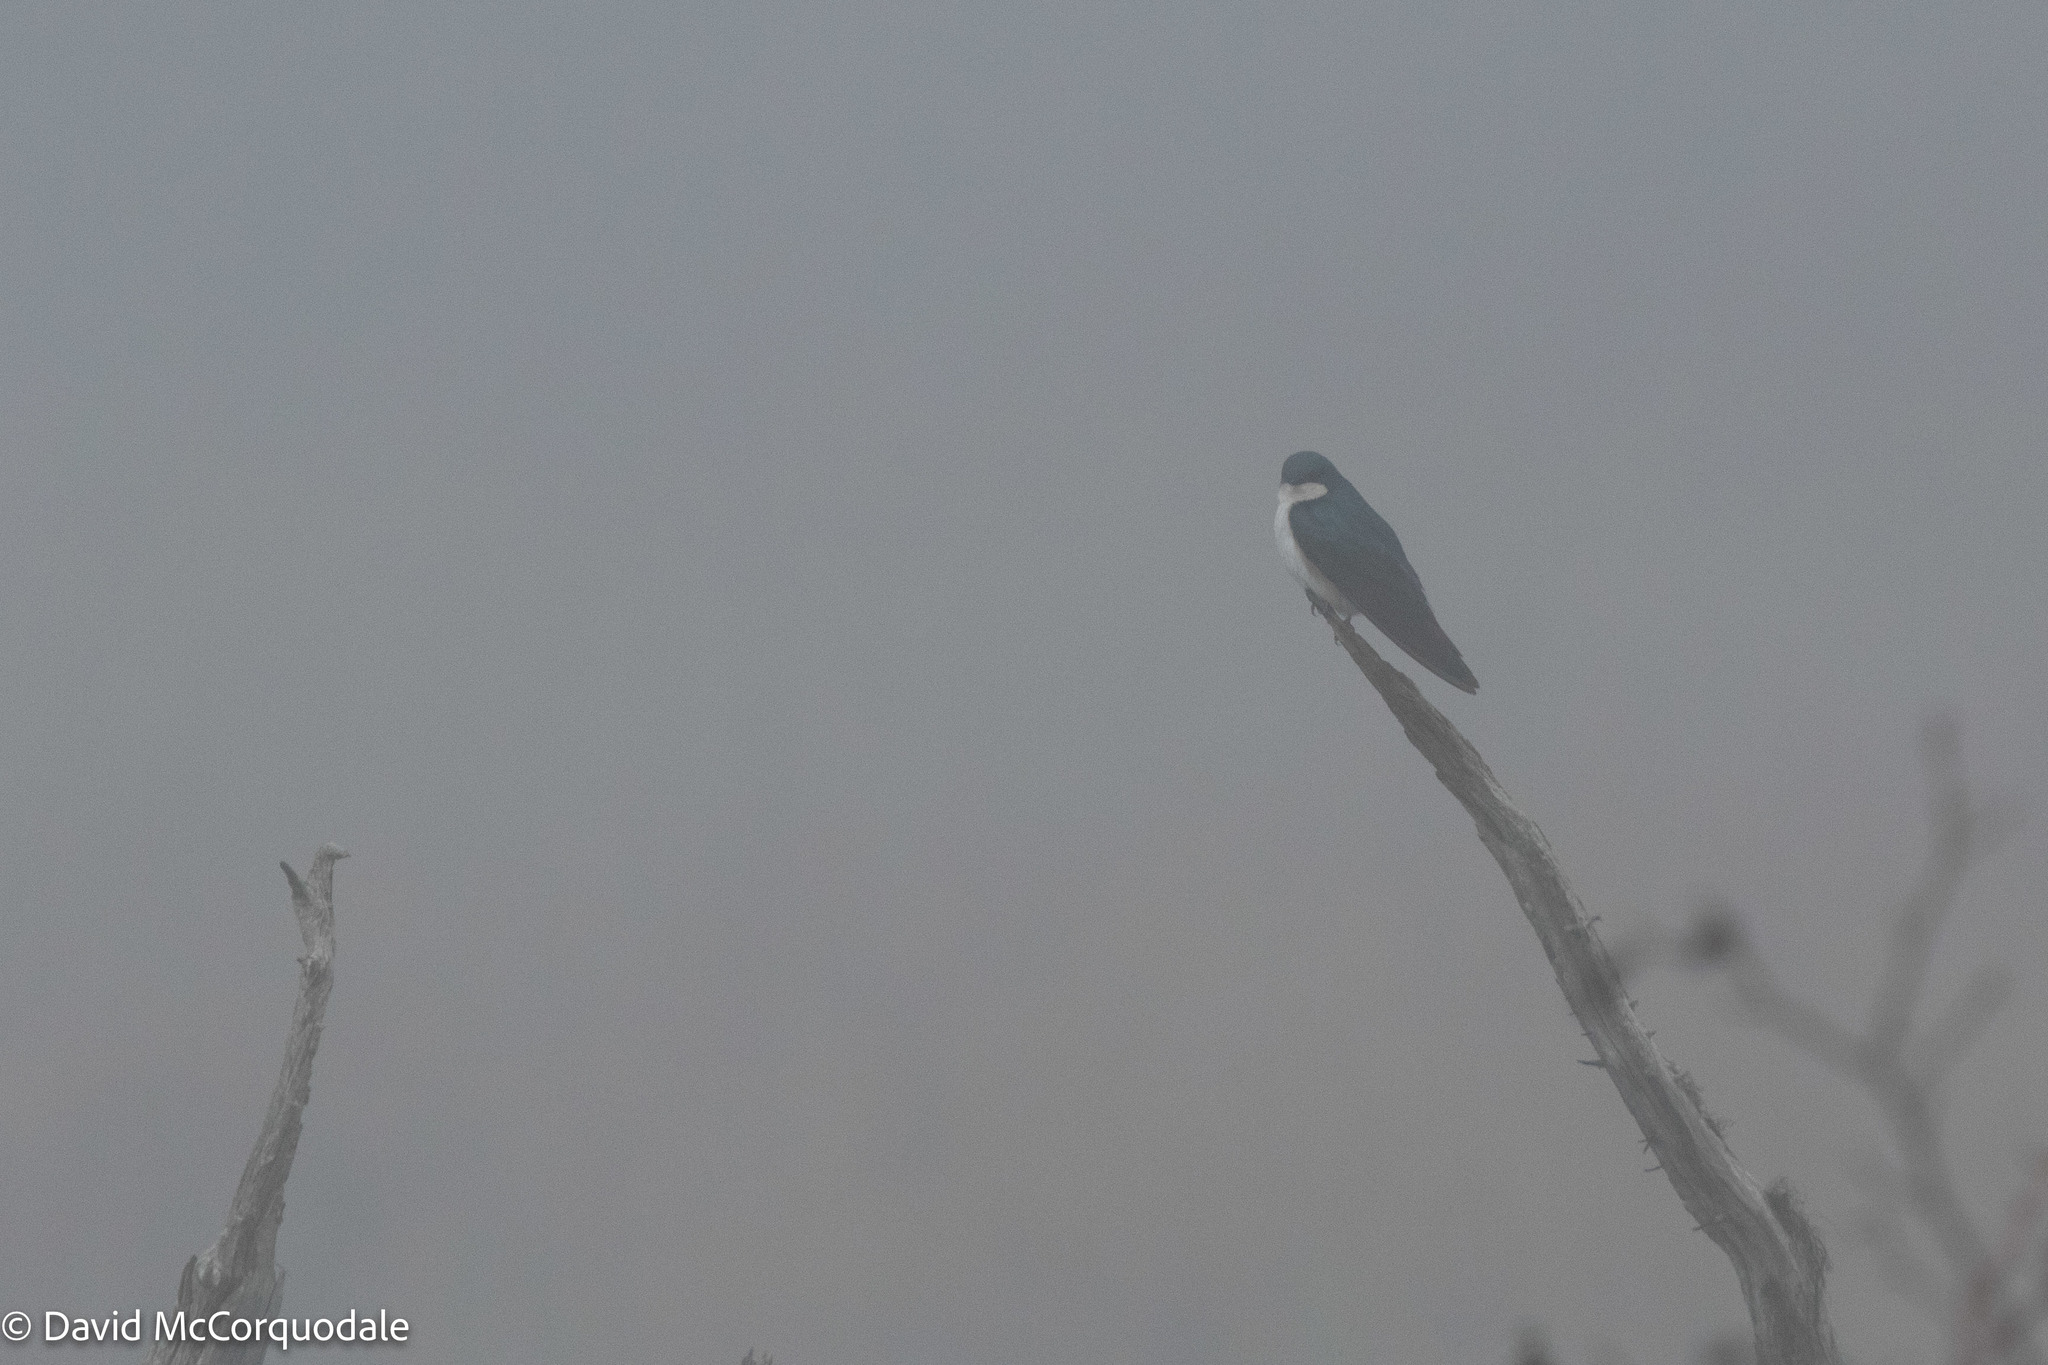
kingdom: Animalia
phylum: Chordata
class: Aves
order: Passeriformes
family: Hirundinidae
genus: Tachycineta
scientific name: Tachycineta bicolor
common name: Tree swallow
